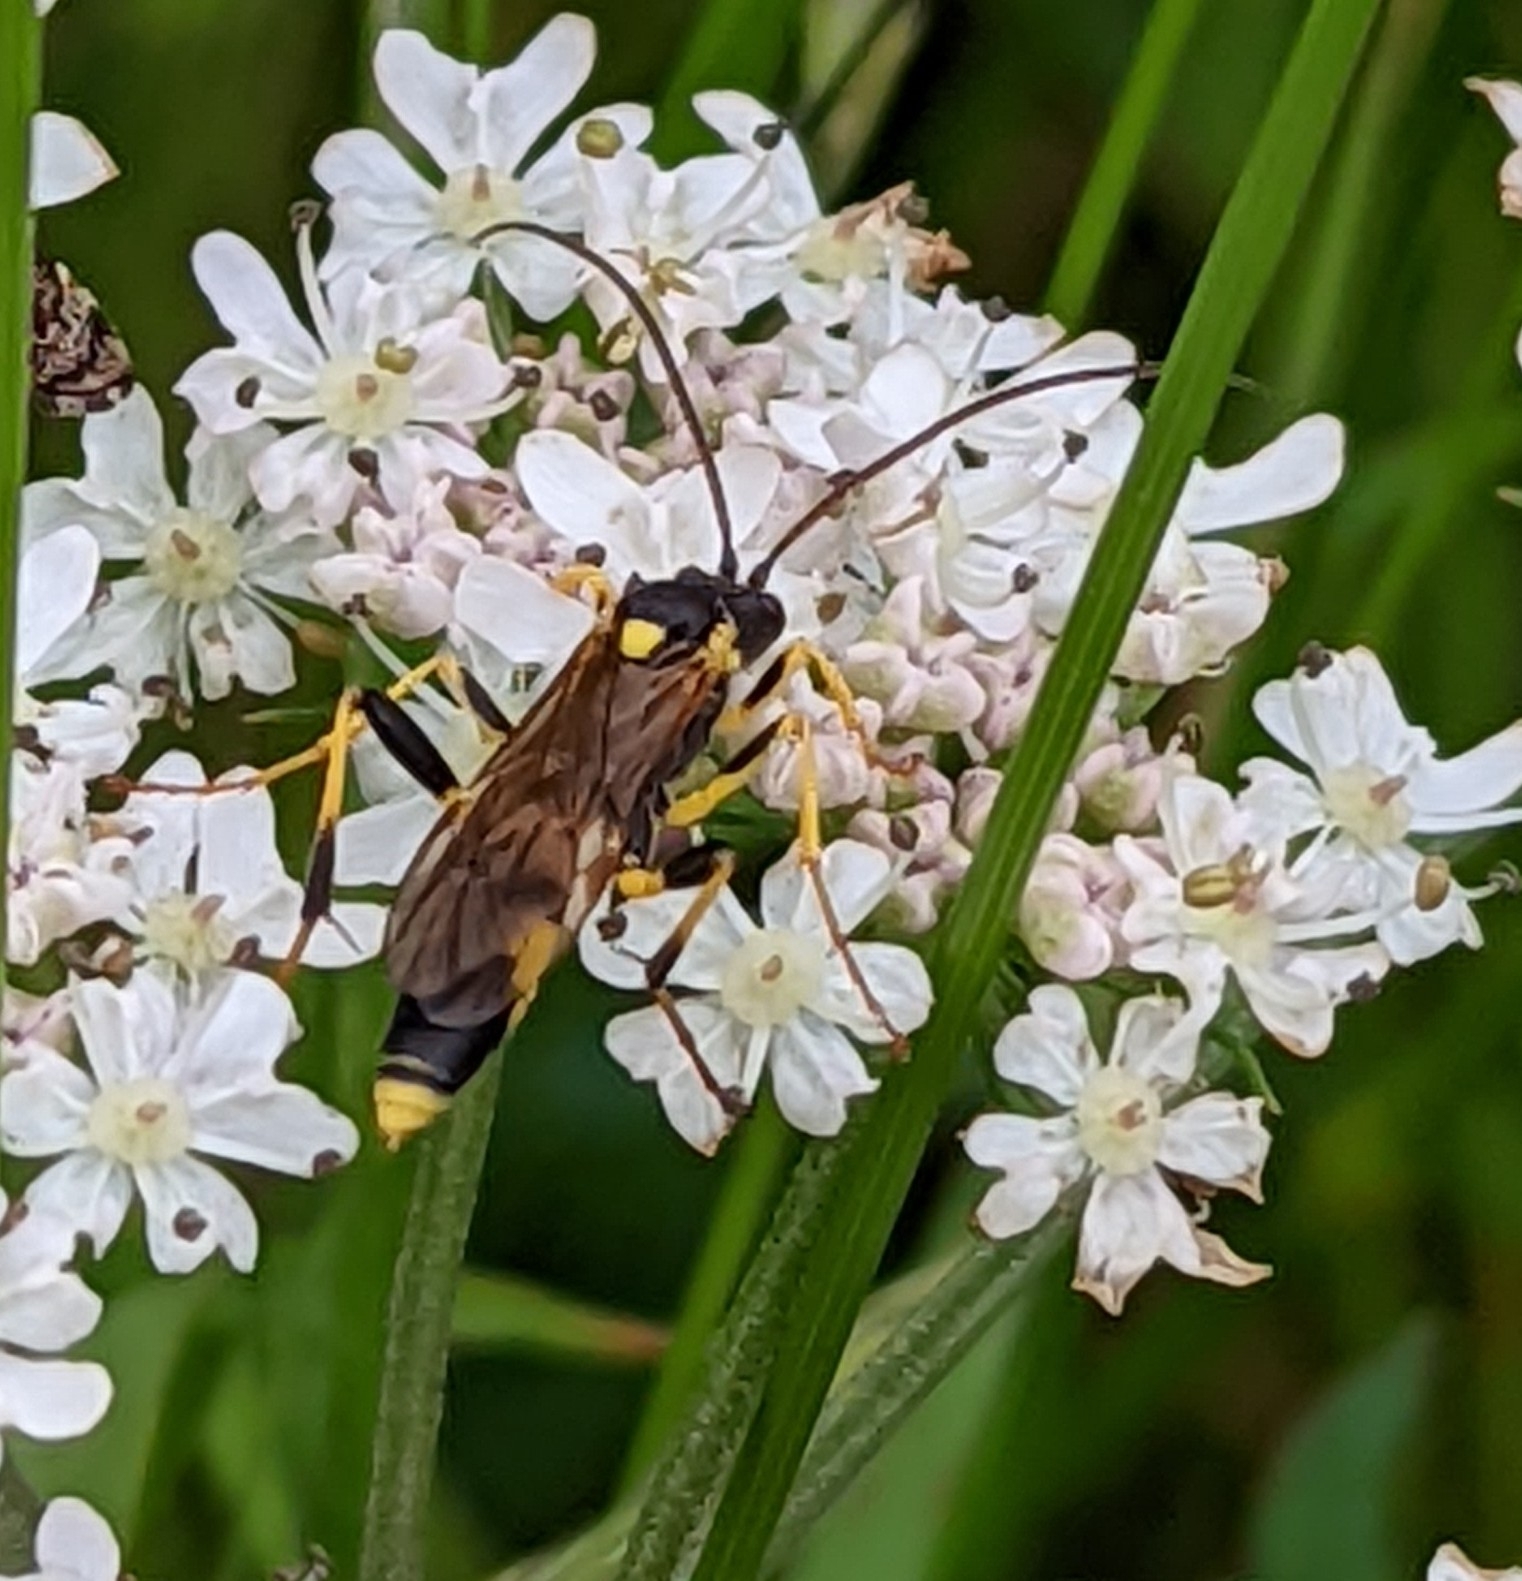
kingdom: Animalia
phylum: Arthropoda
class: Insecta
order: Hymenoptera
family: Ichneumonidae
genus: Amblyteles
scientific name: Amblyteles armatorius
